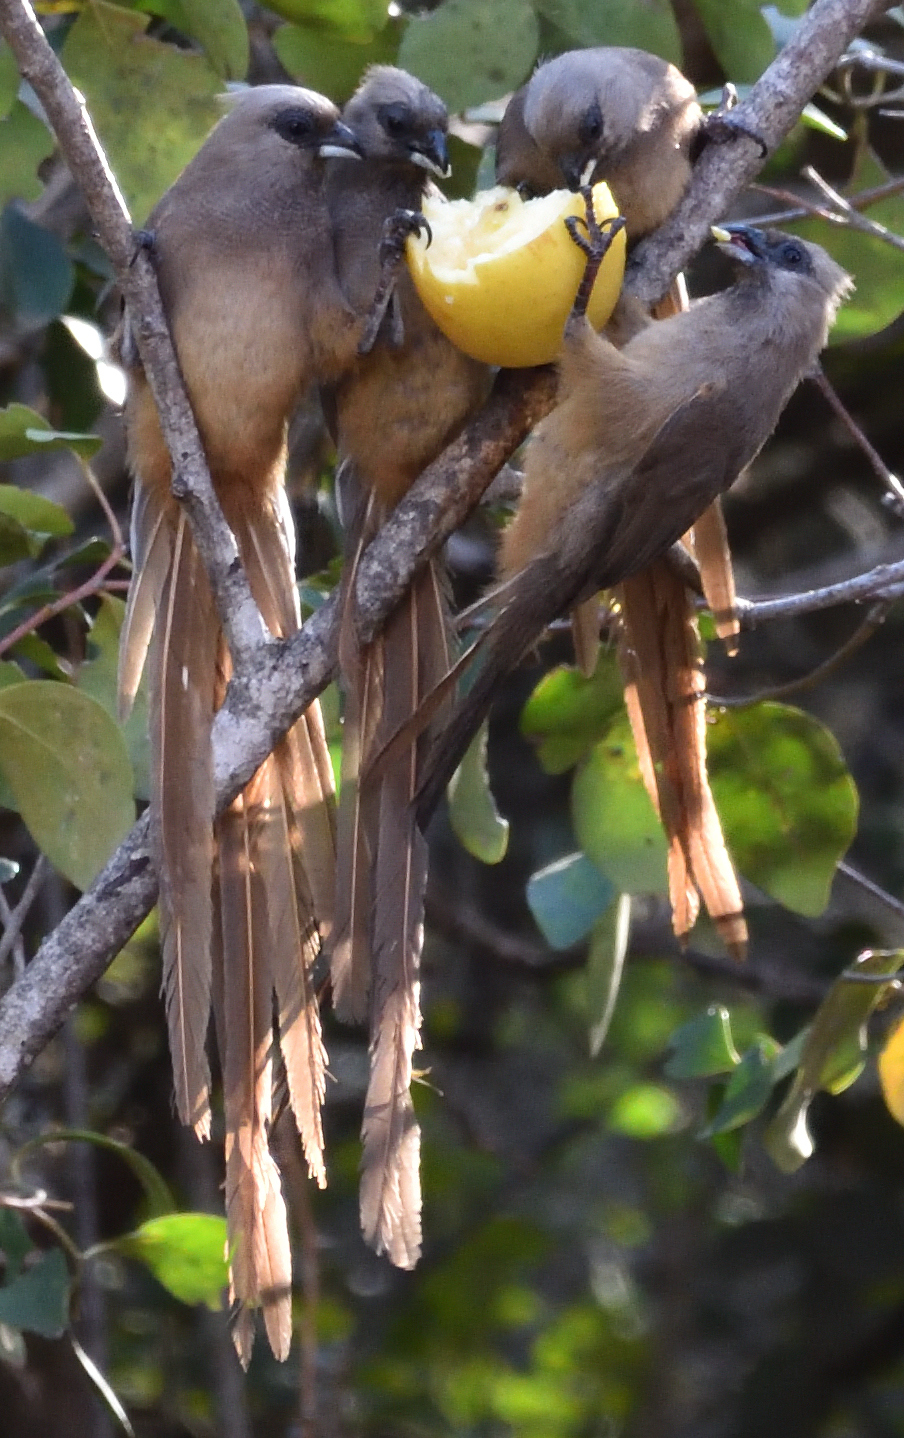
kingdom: Animalia
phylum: Chordata
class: Aves
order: Coliiformes
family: Coliidae
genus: Colius
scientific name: Colius striatus
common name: Speckled mousebird
